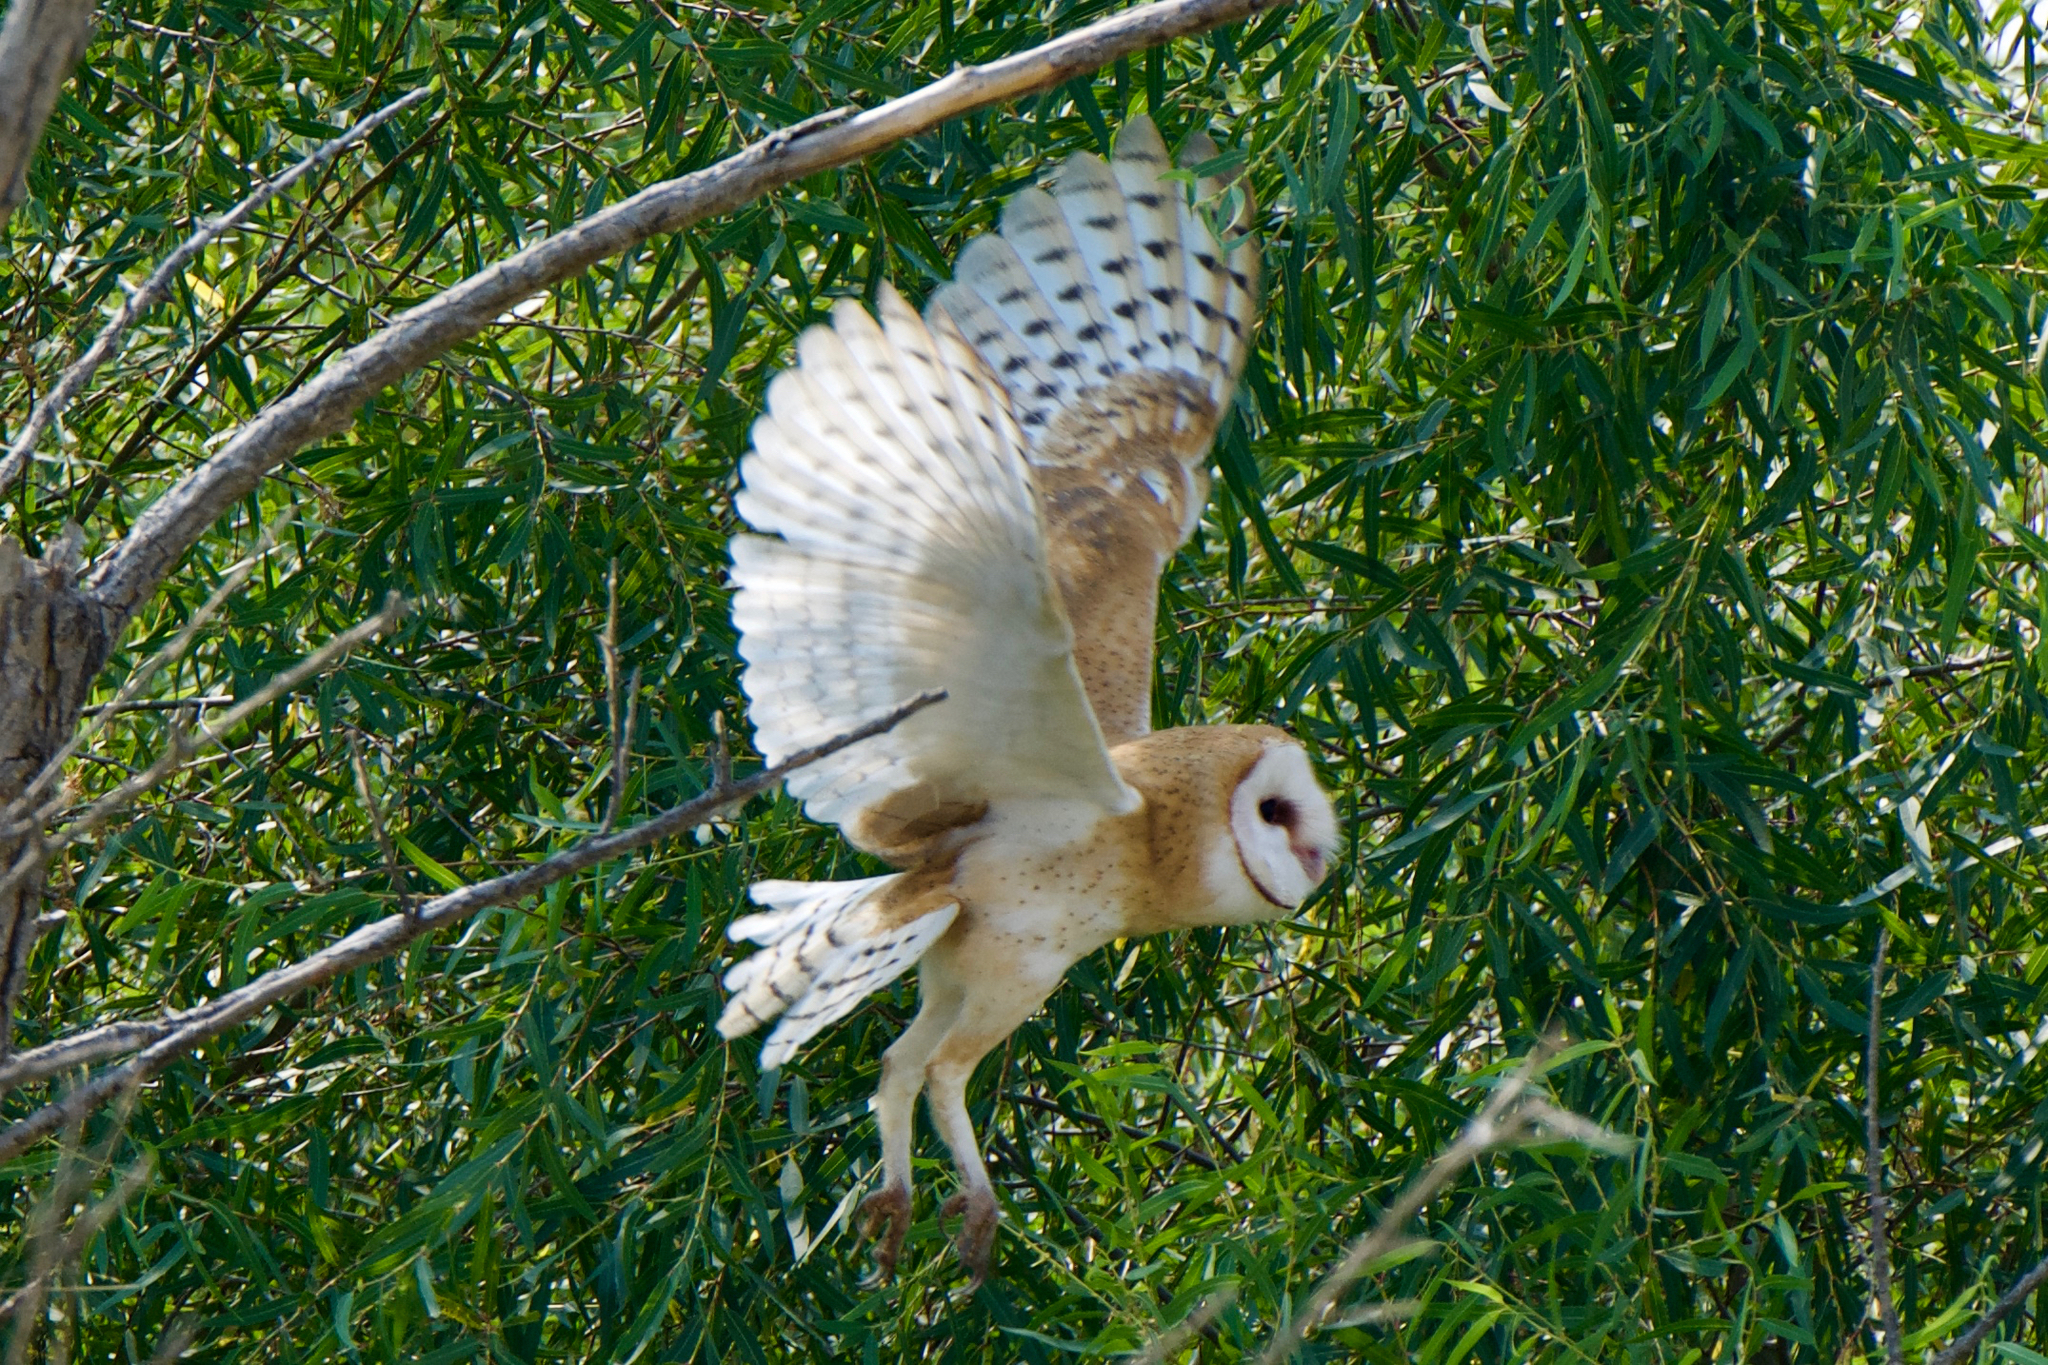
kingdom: Animalia
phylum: Chordata
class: Aves
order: Strigiformes
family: Tytonidae
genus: Tyto
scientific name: Tyto alba
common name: Barn owl
